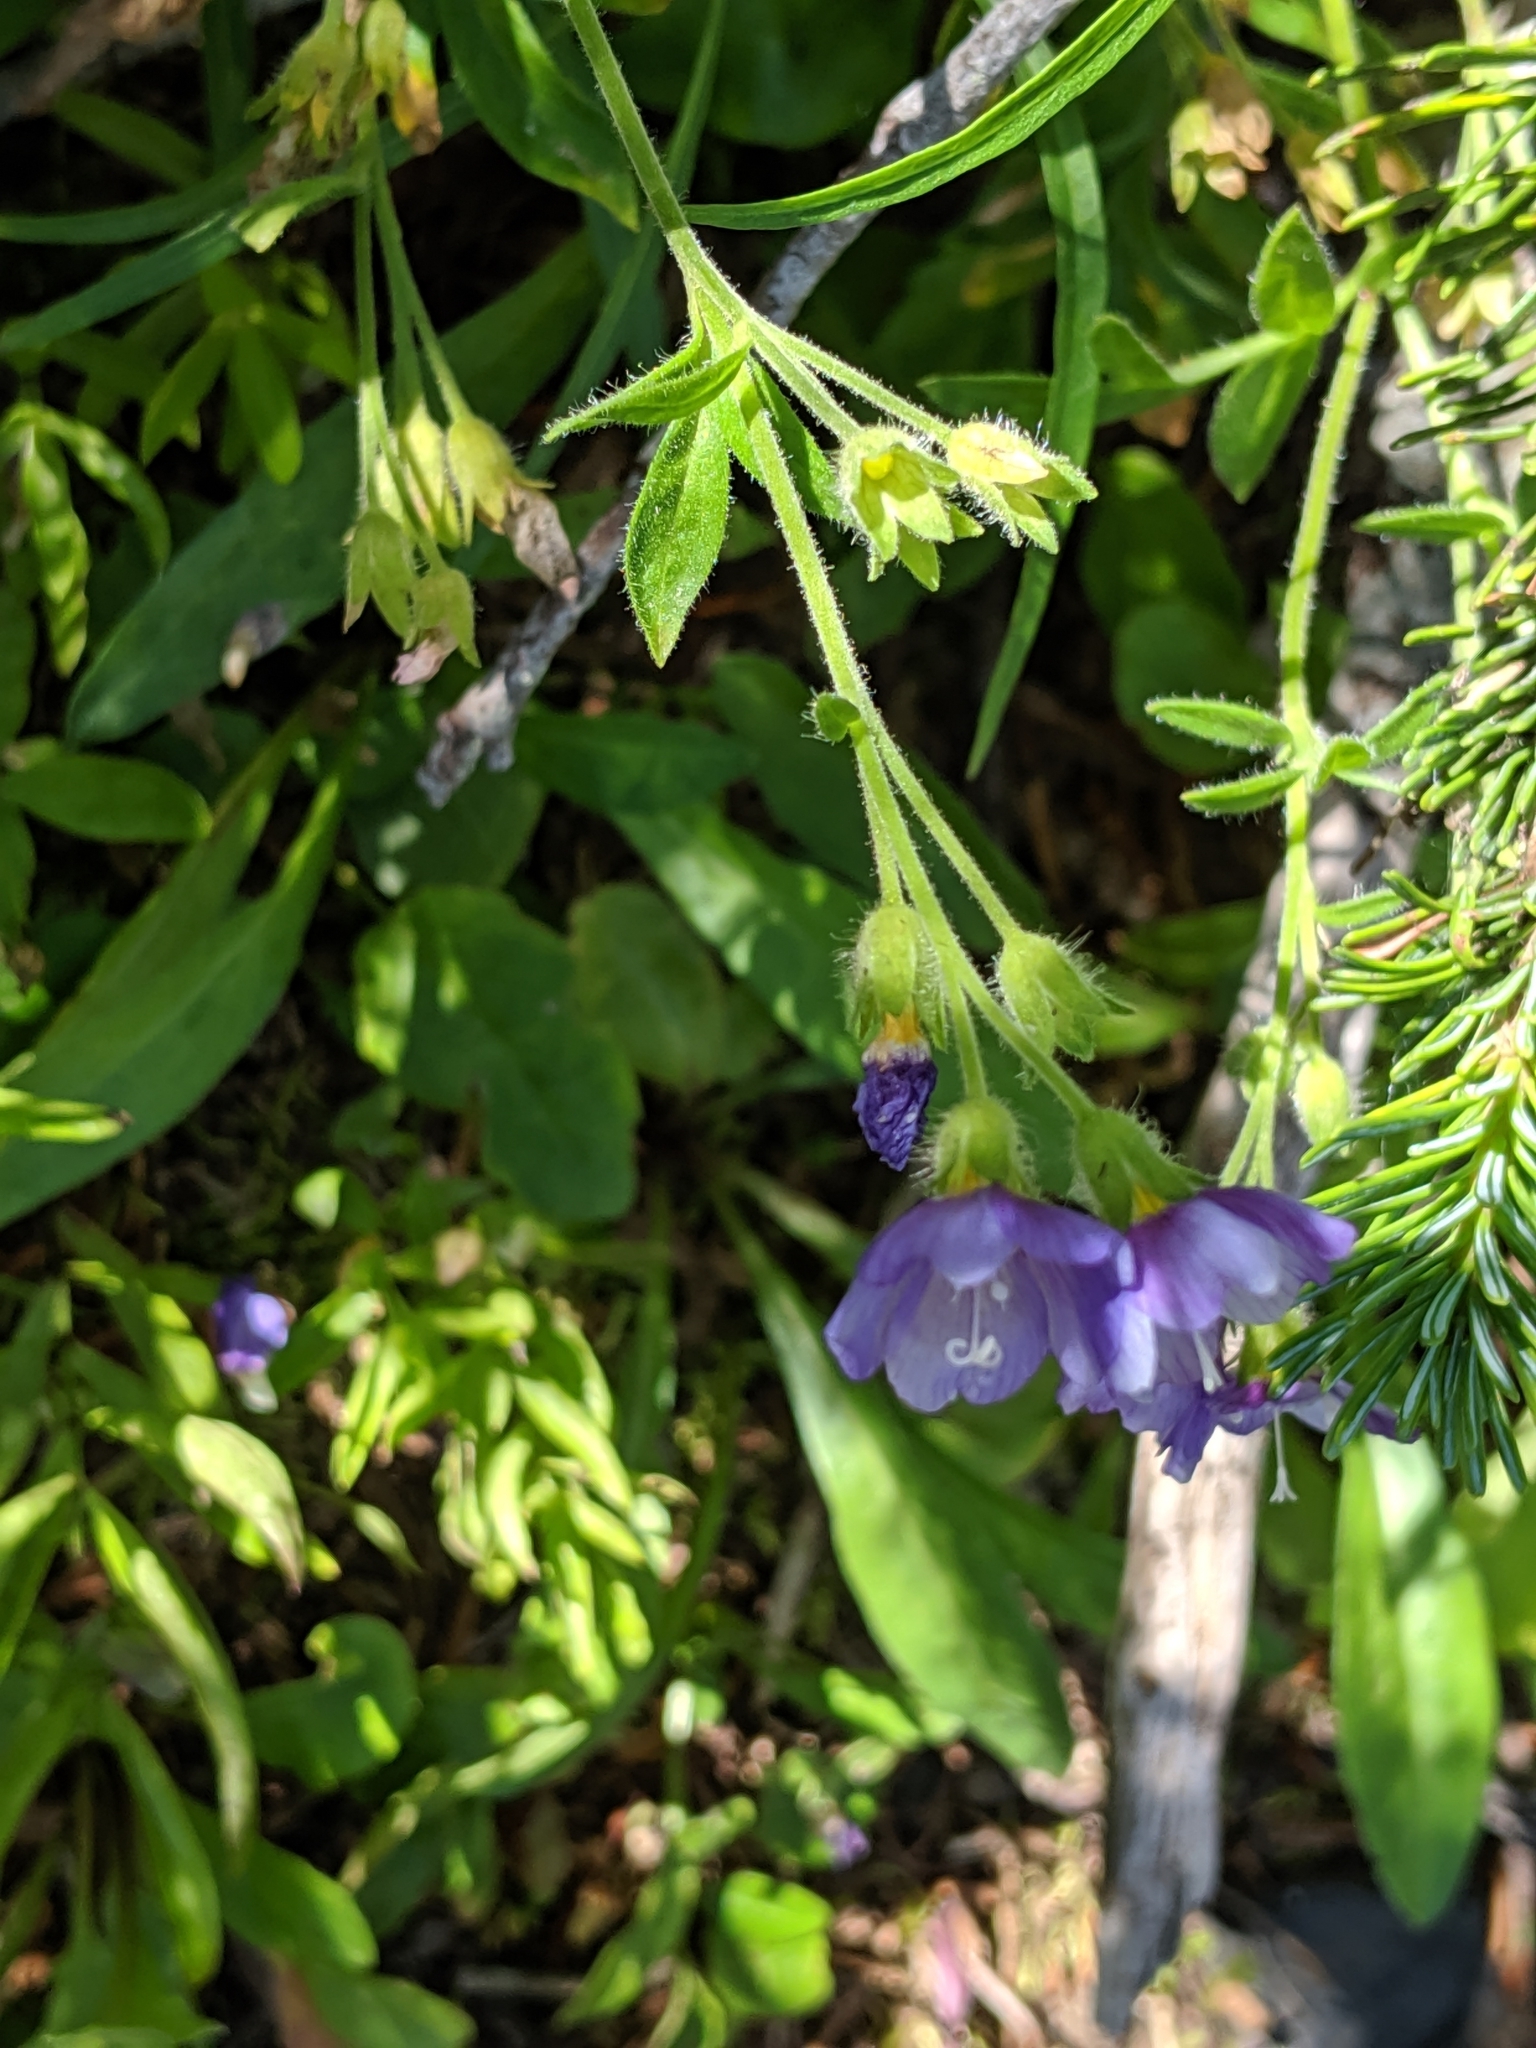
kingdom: Plantae
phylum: Tracheophyta
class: Magnoliopsida
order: Ericales
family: Polemoniaceae
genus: Polemonium
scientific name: Polemonium californicum
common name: California jacob's ladder
